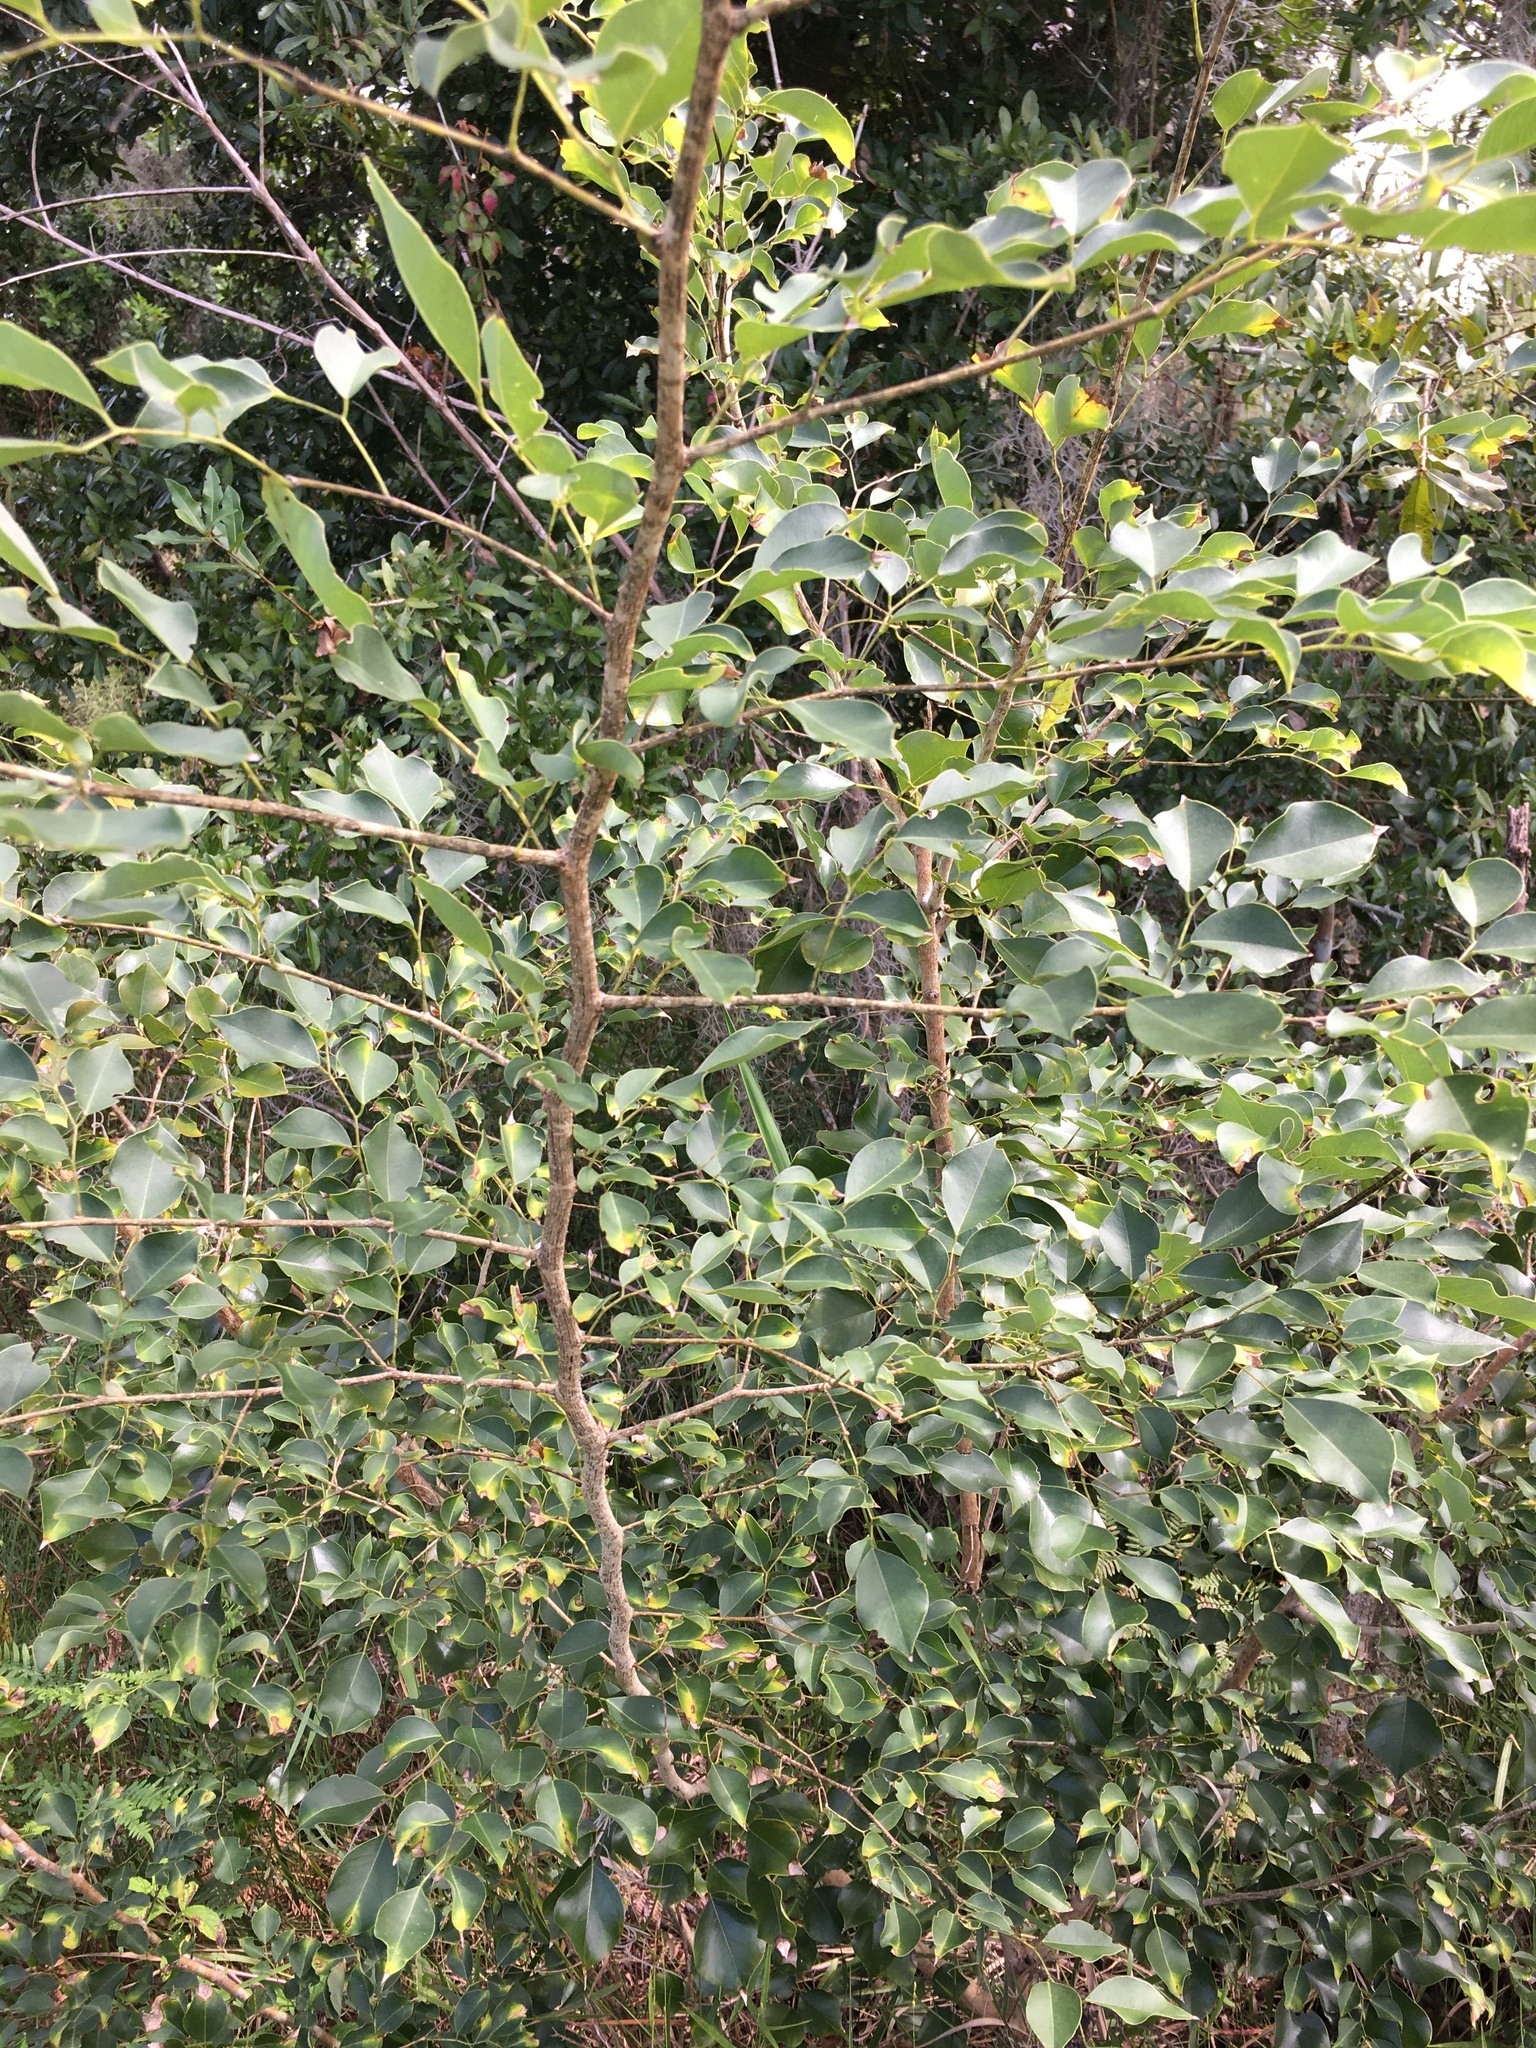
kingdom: Plantae
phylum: Tracheophyta
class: Magnoliopsida
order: Fabales
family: Fabaceae
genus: Dalbergia
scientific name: Dalbergia sissoo
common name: Indian rosewood
